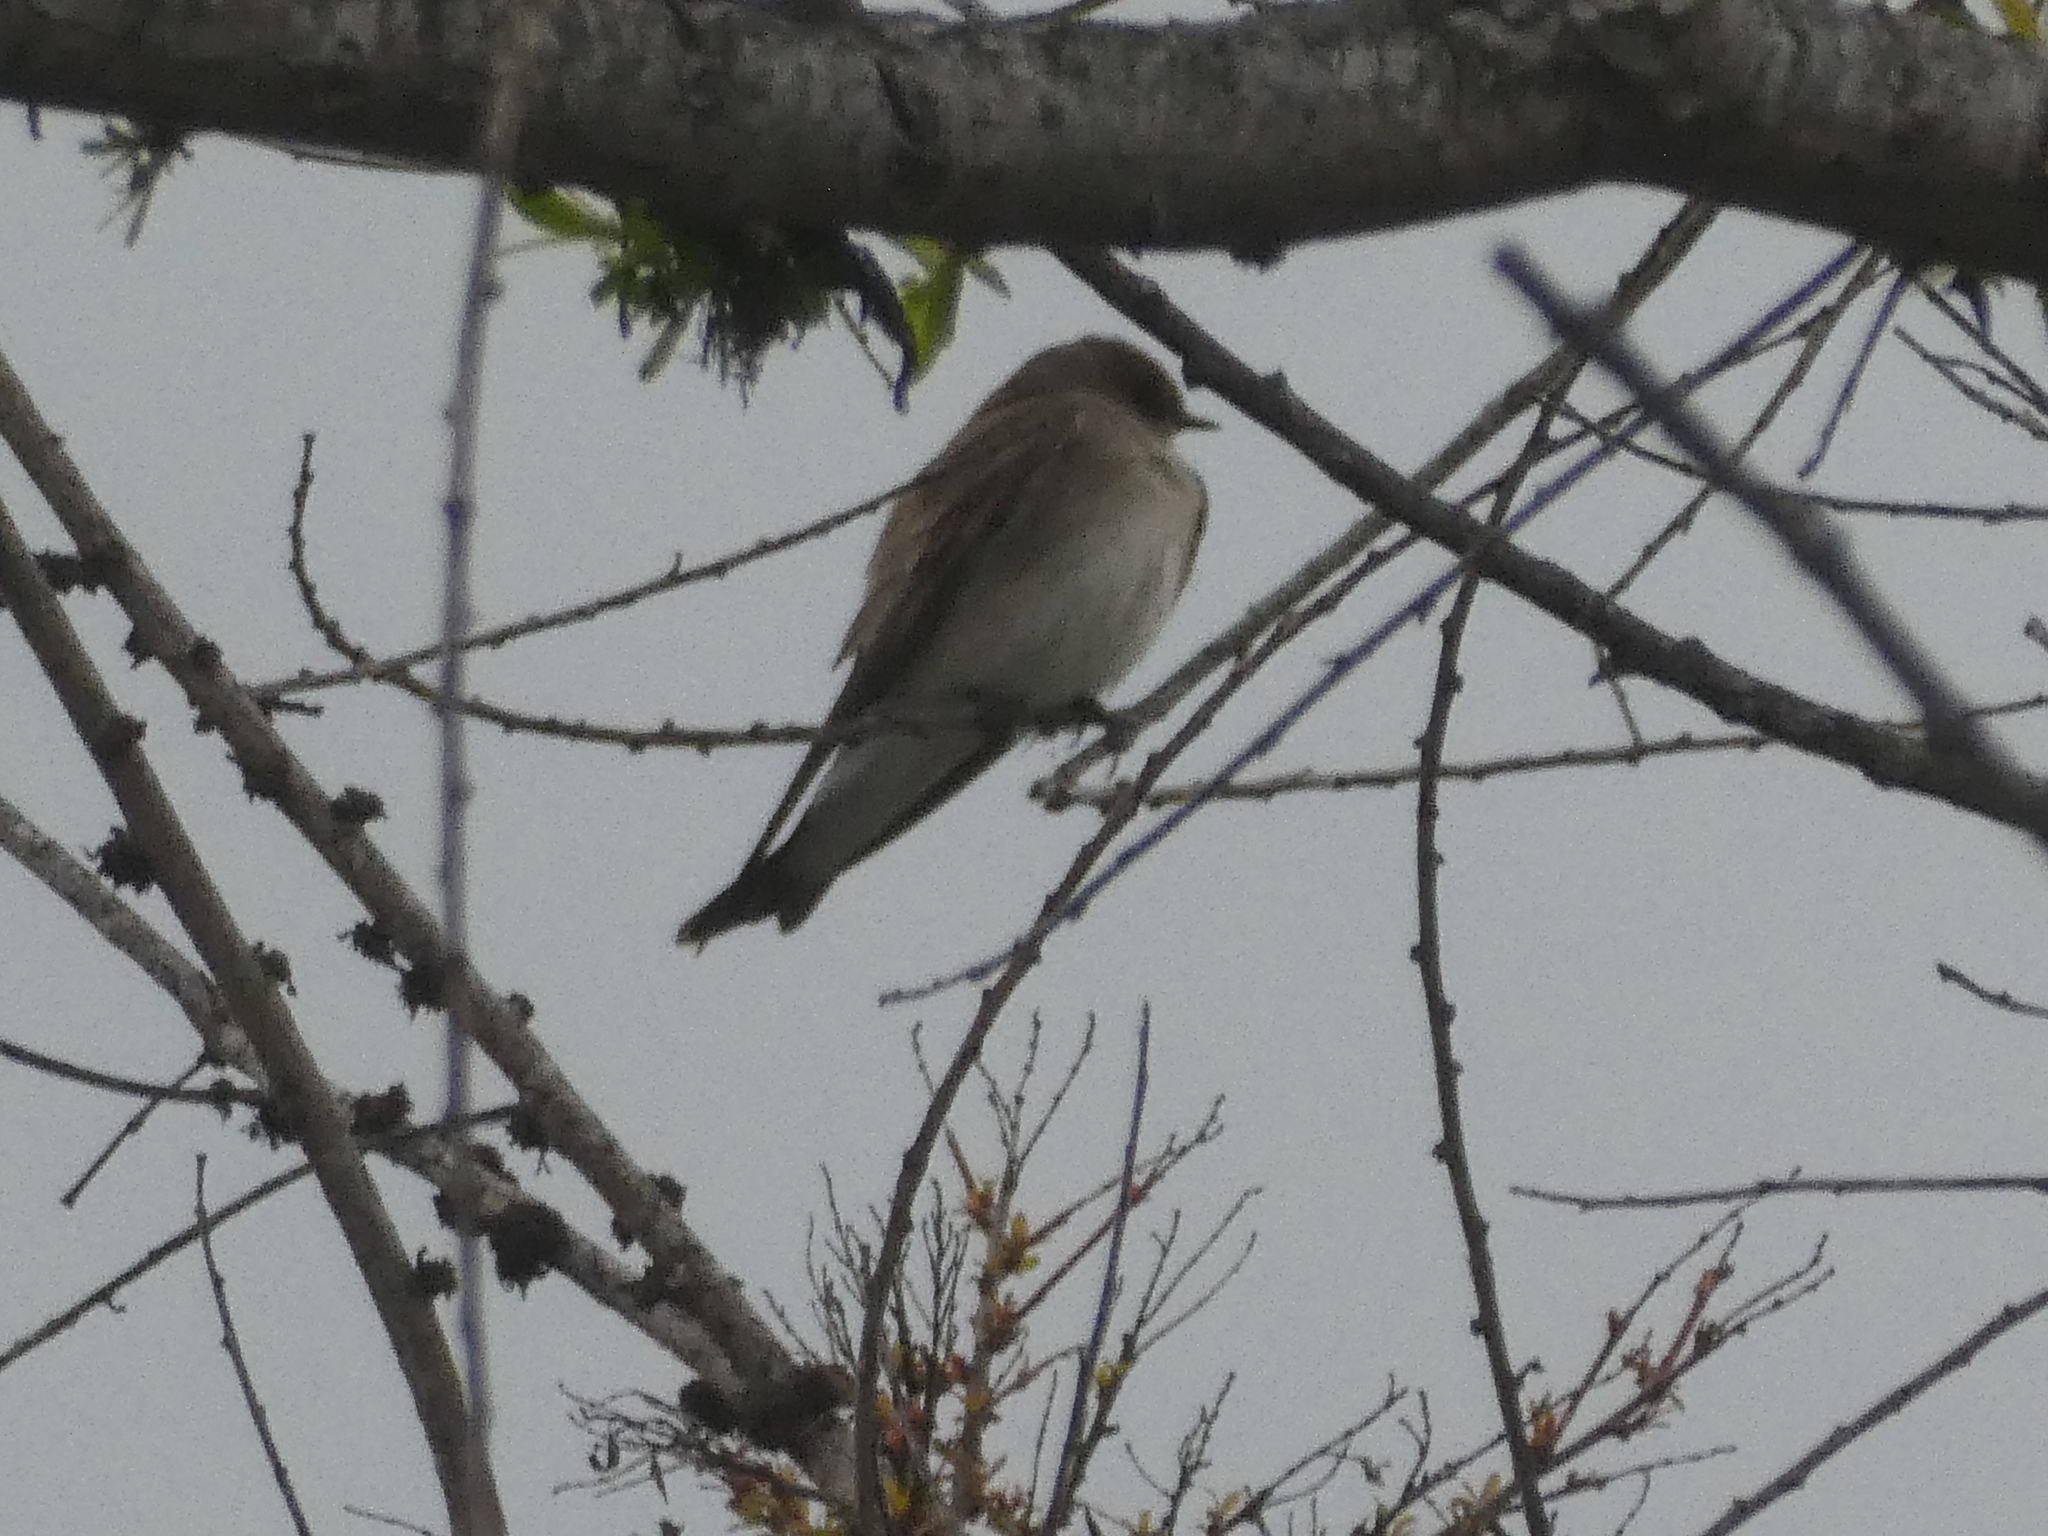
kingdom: Animalia
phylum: Chordata
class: Aves
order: Passeriformes
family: Hirundinidae
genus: Stelgidopteryx
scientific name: Stelgidopteryx serripennis
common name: Northern rough-winged swallow
